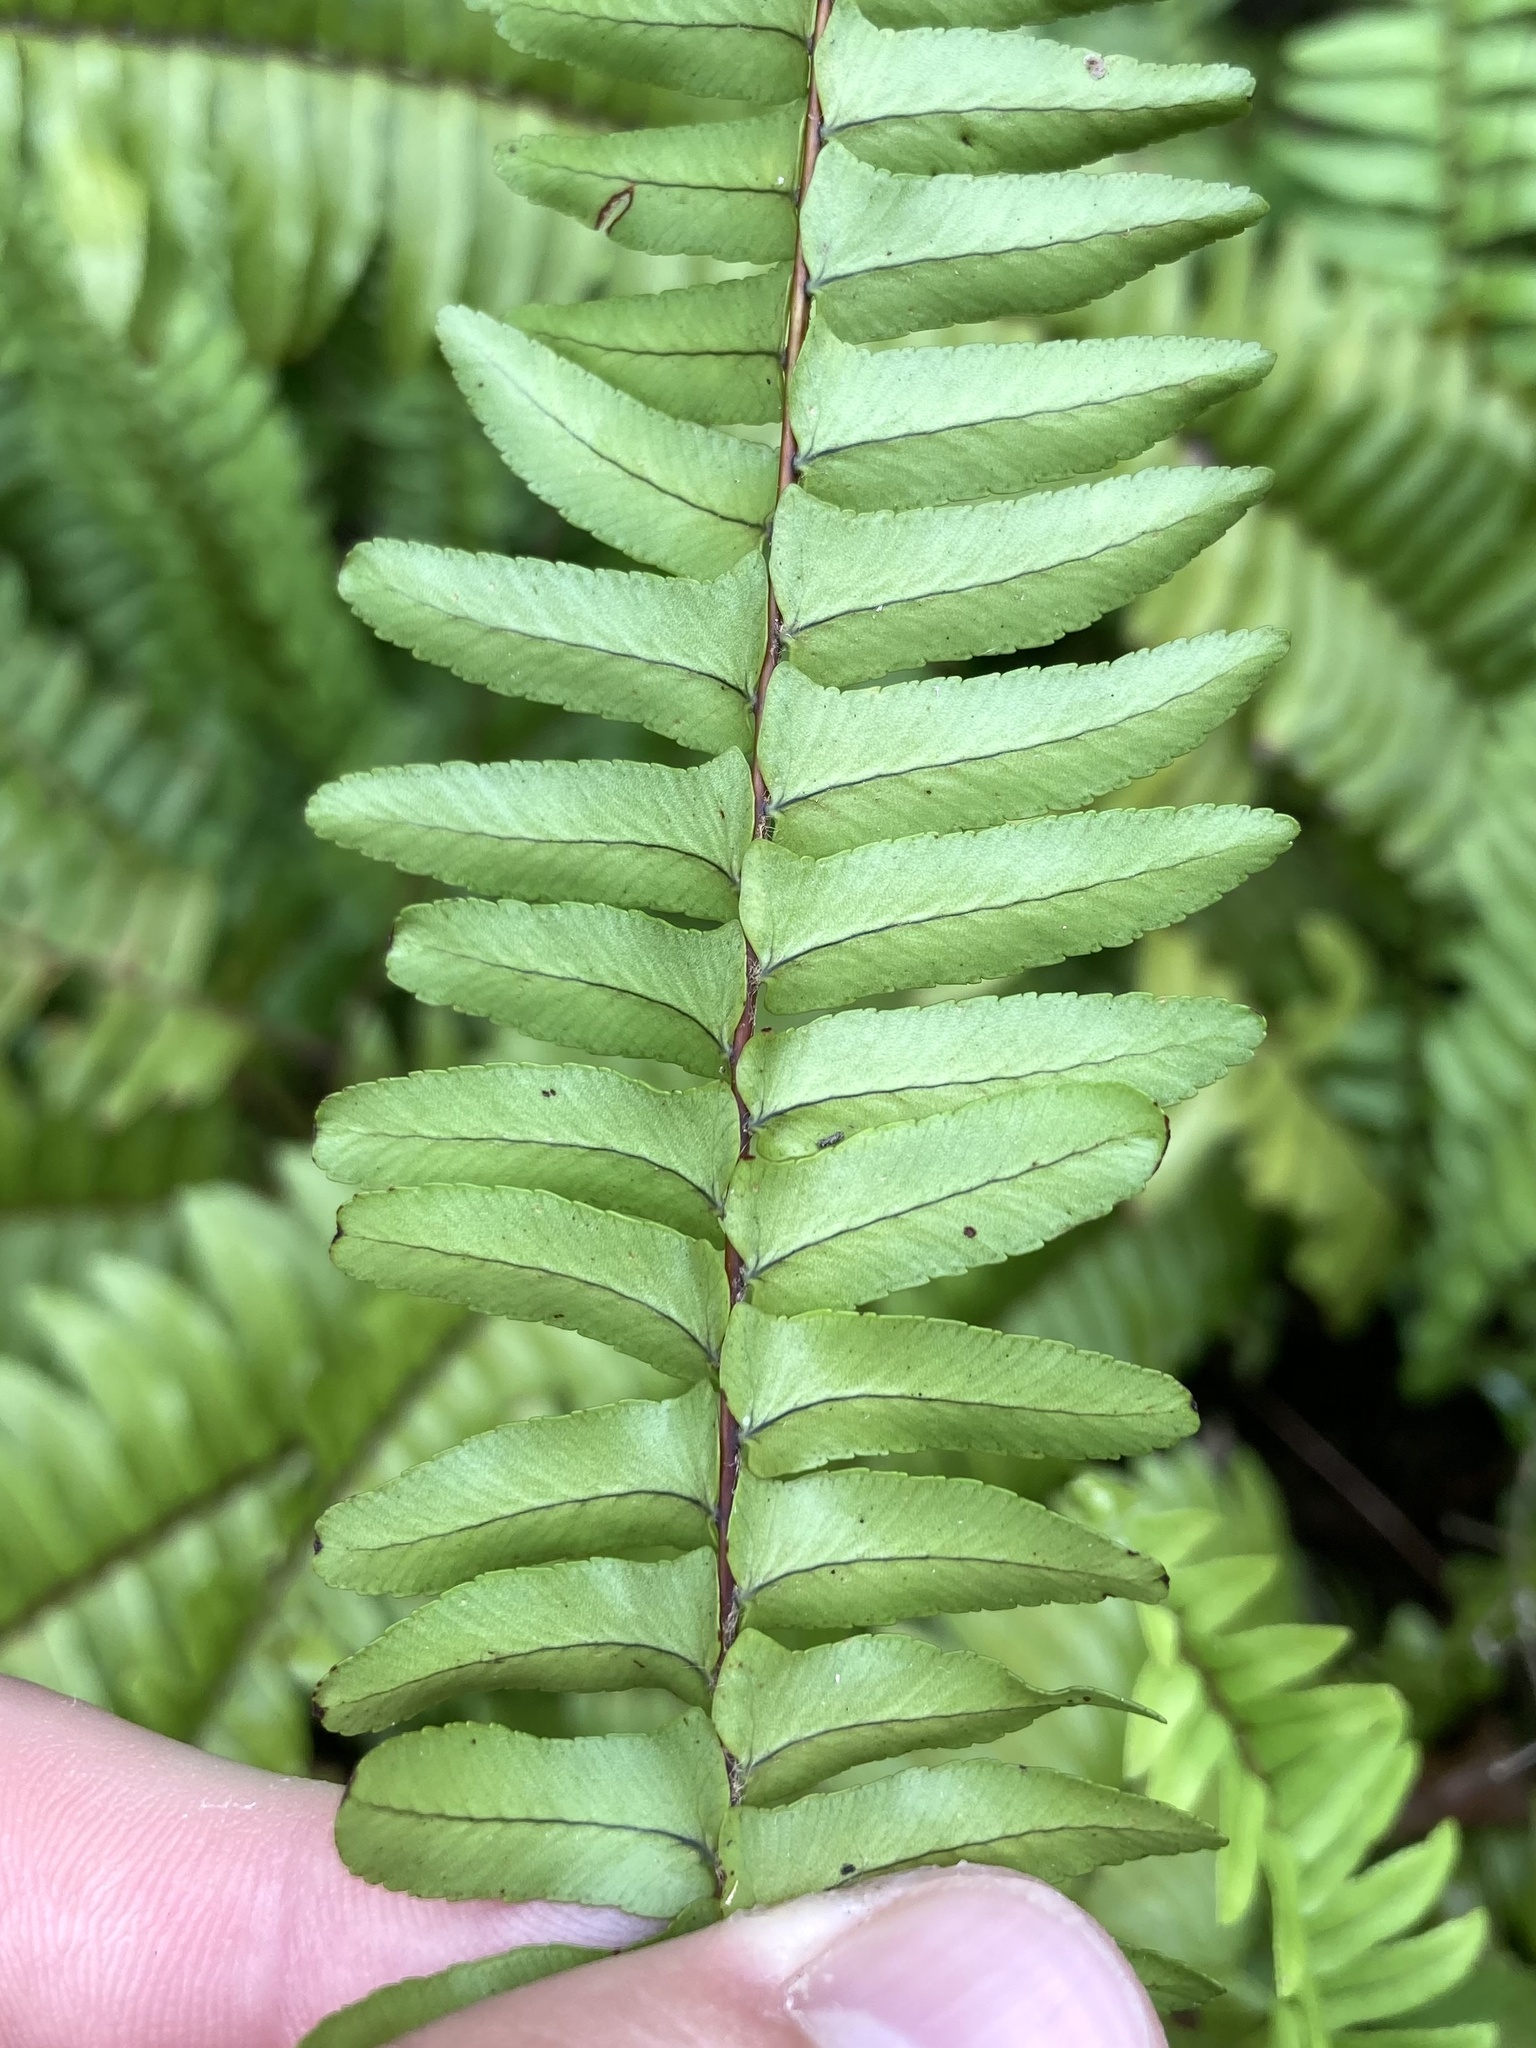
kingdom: Plantae
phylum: Tracheophyta
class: Polypodiopsida
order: Polypodiales
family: Nephrolepidaceae
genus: Nephrolepis
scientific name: Nephrolepis cordifolia
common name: Narrow swordfern
